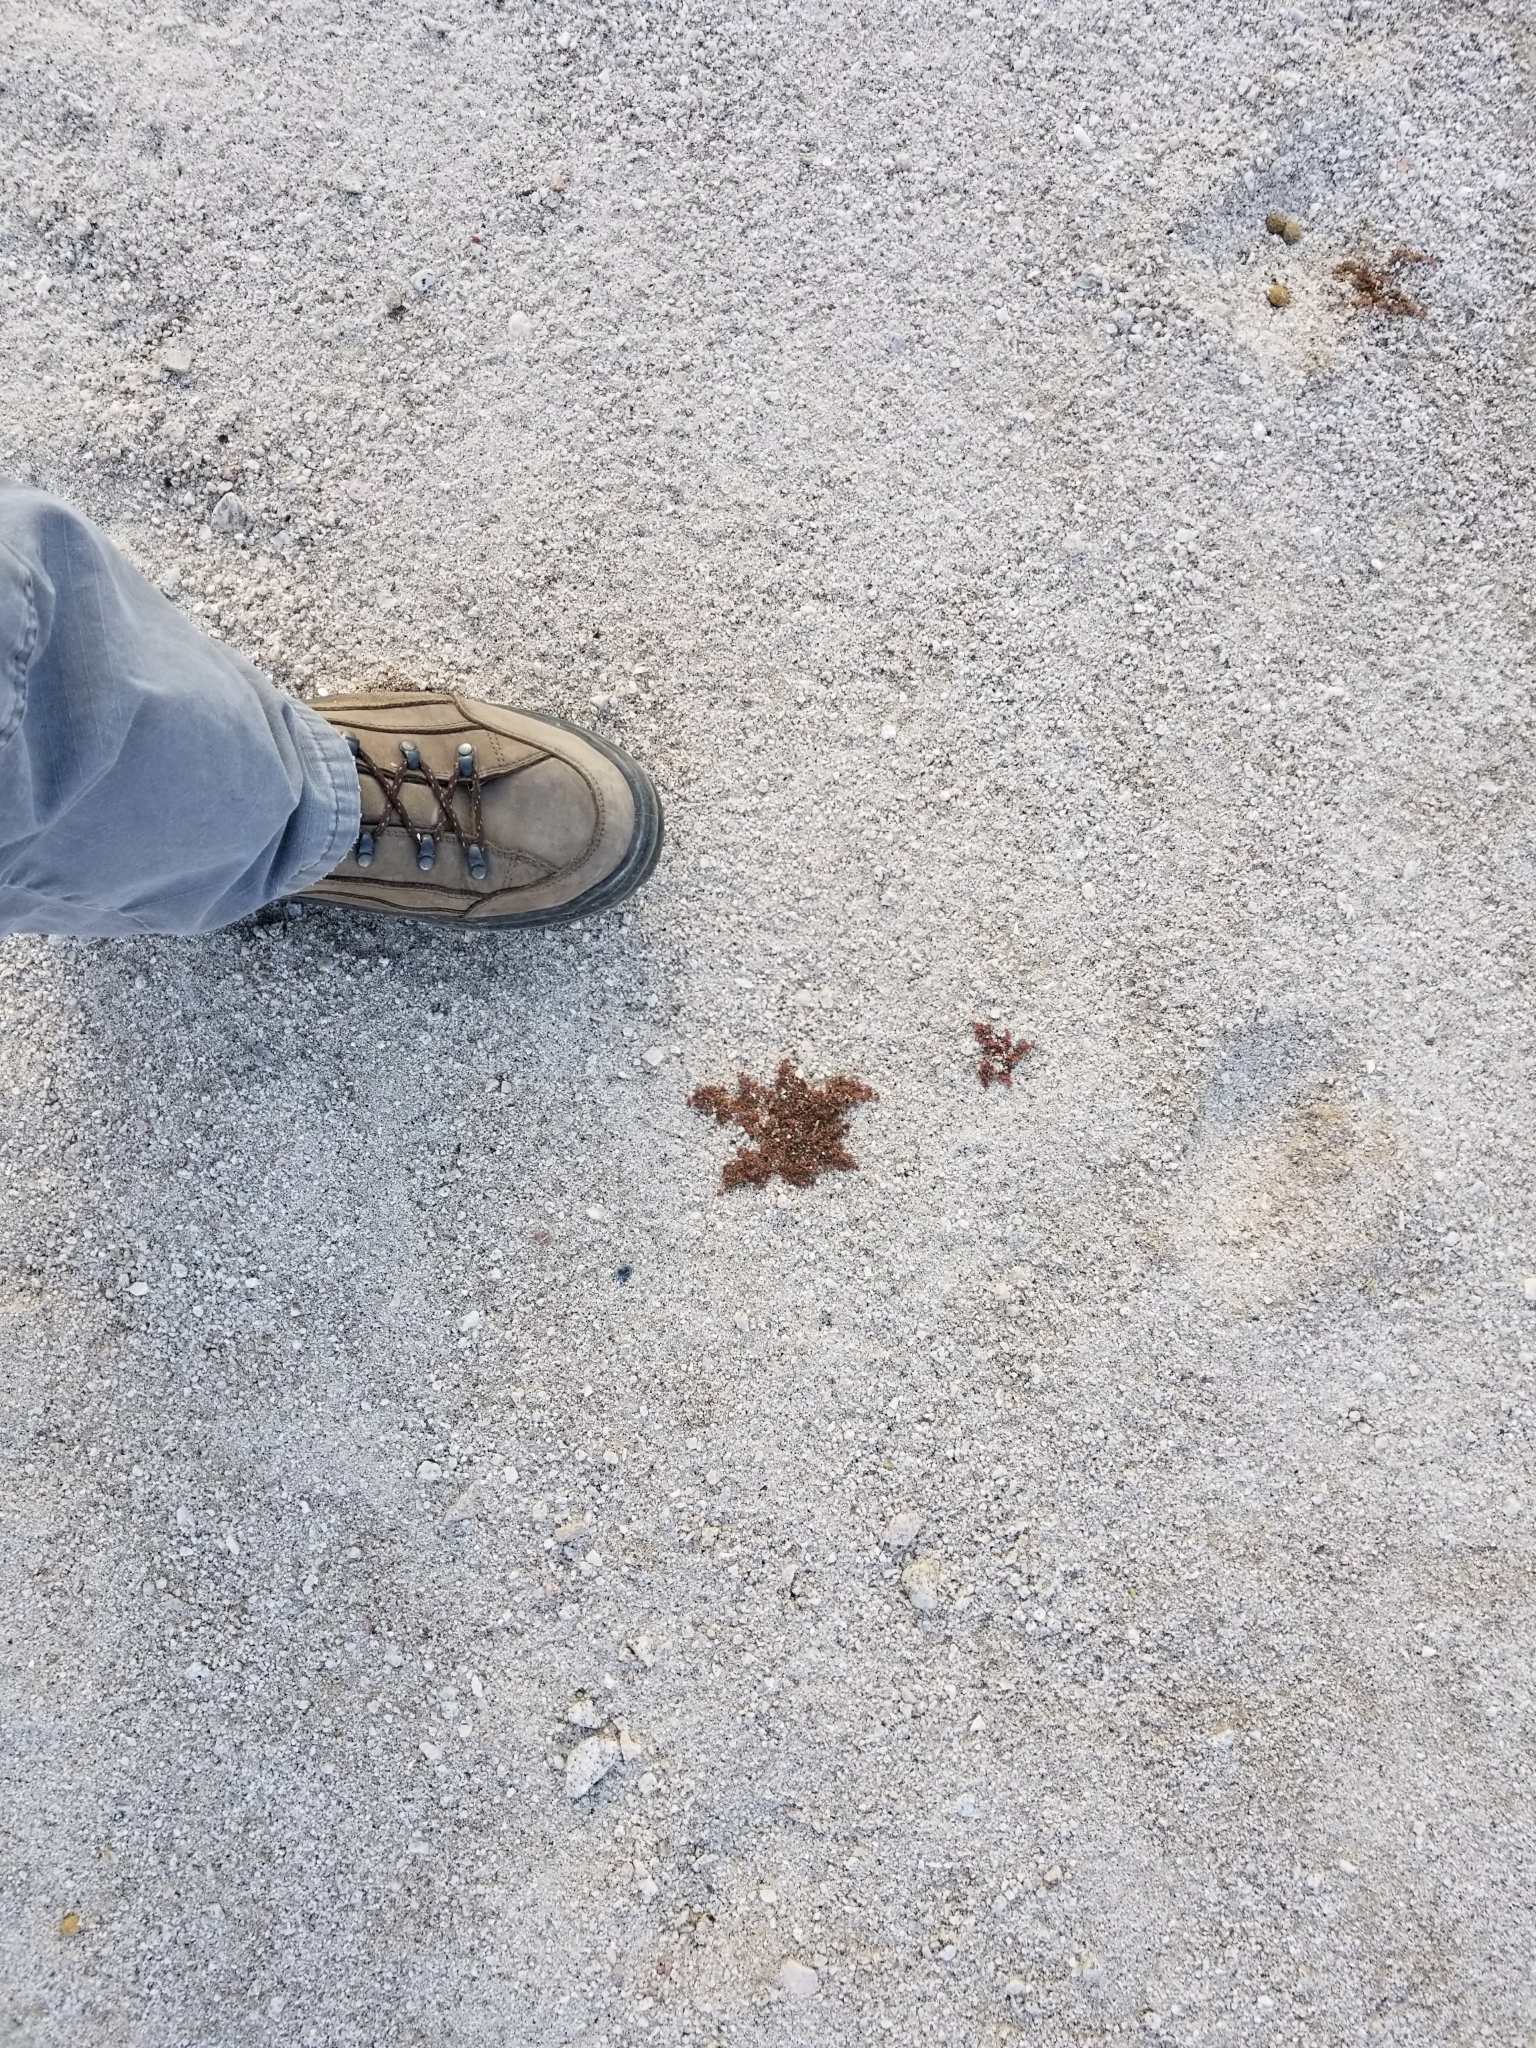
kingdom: Plantae
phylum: Tracheophyta
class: Magnoliopsida
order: Malpighiales
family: Euphorbiaceae
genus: Euphorbia
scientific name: Euphorbia setiloba
